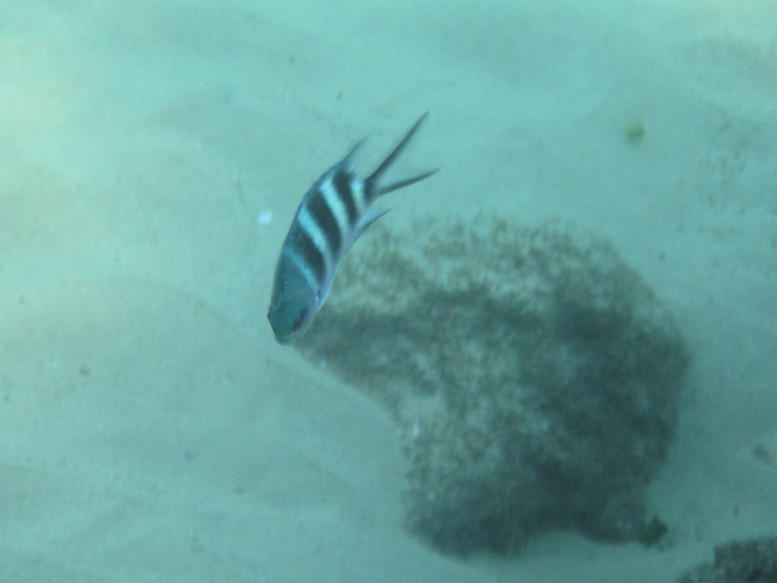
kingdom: Animalia
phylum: Chordata
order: Perciformes
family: Pomacentridae
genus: Abudefduf
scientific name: Abudefduf natalensis
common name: Natal sergeant
